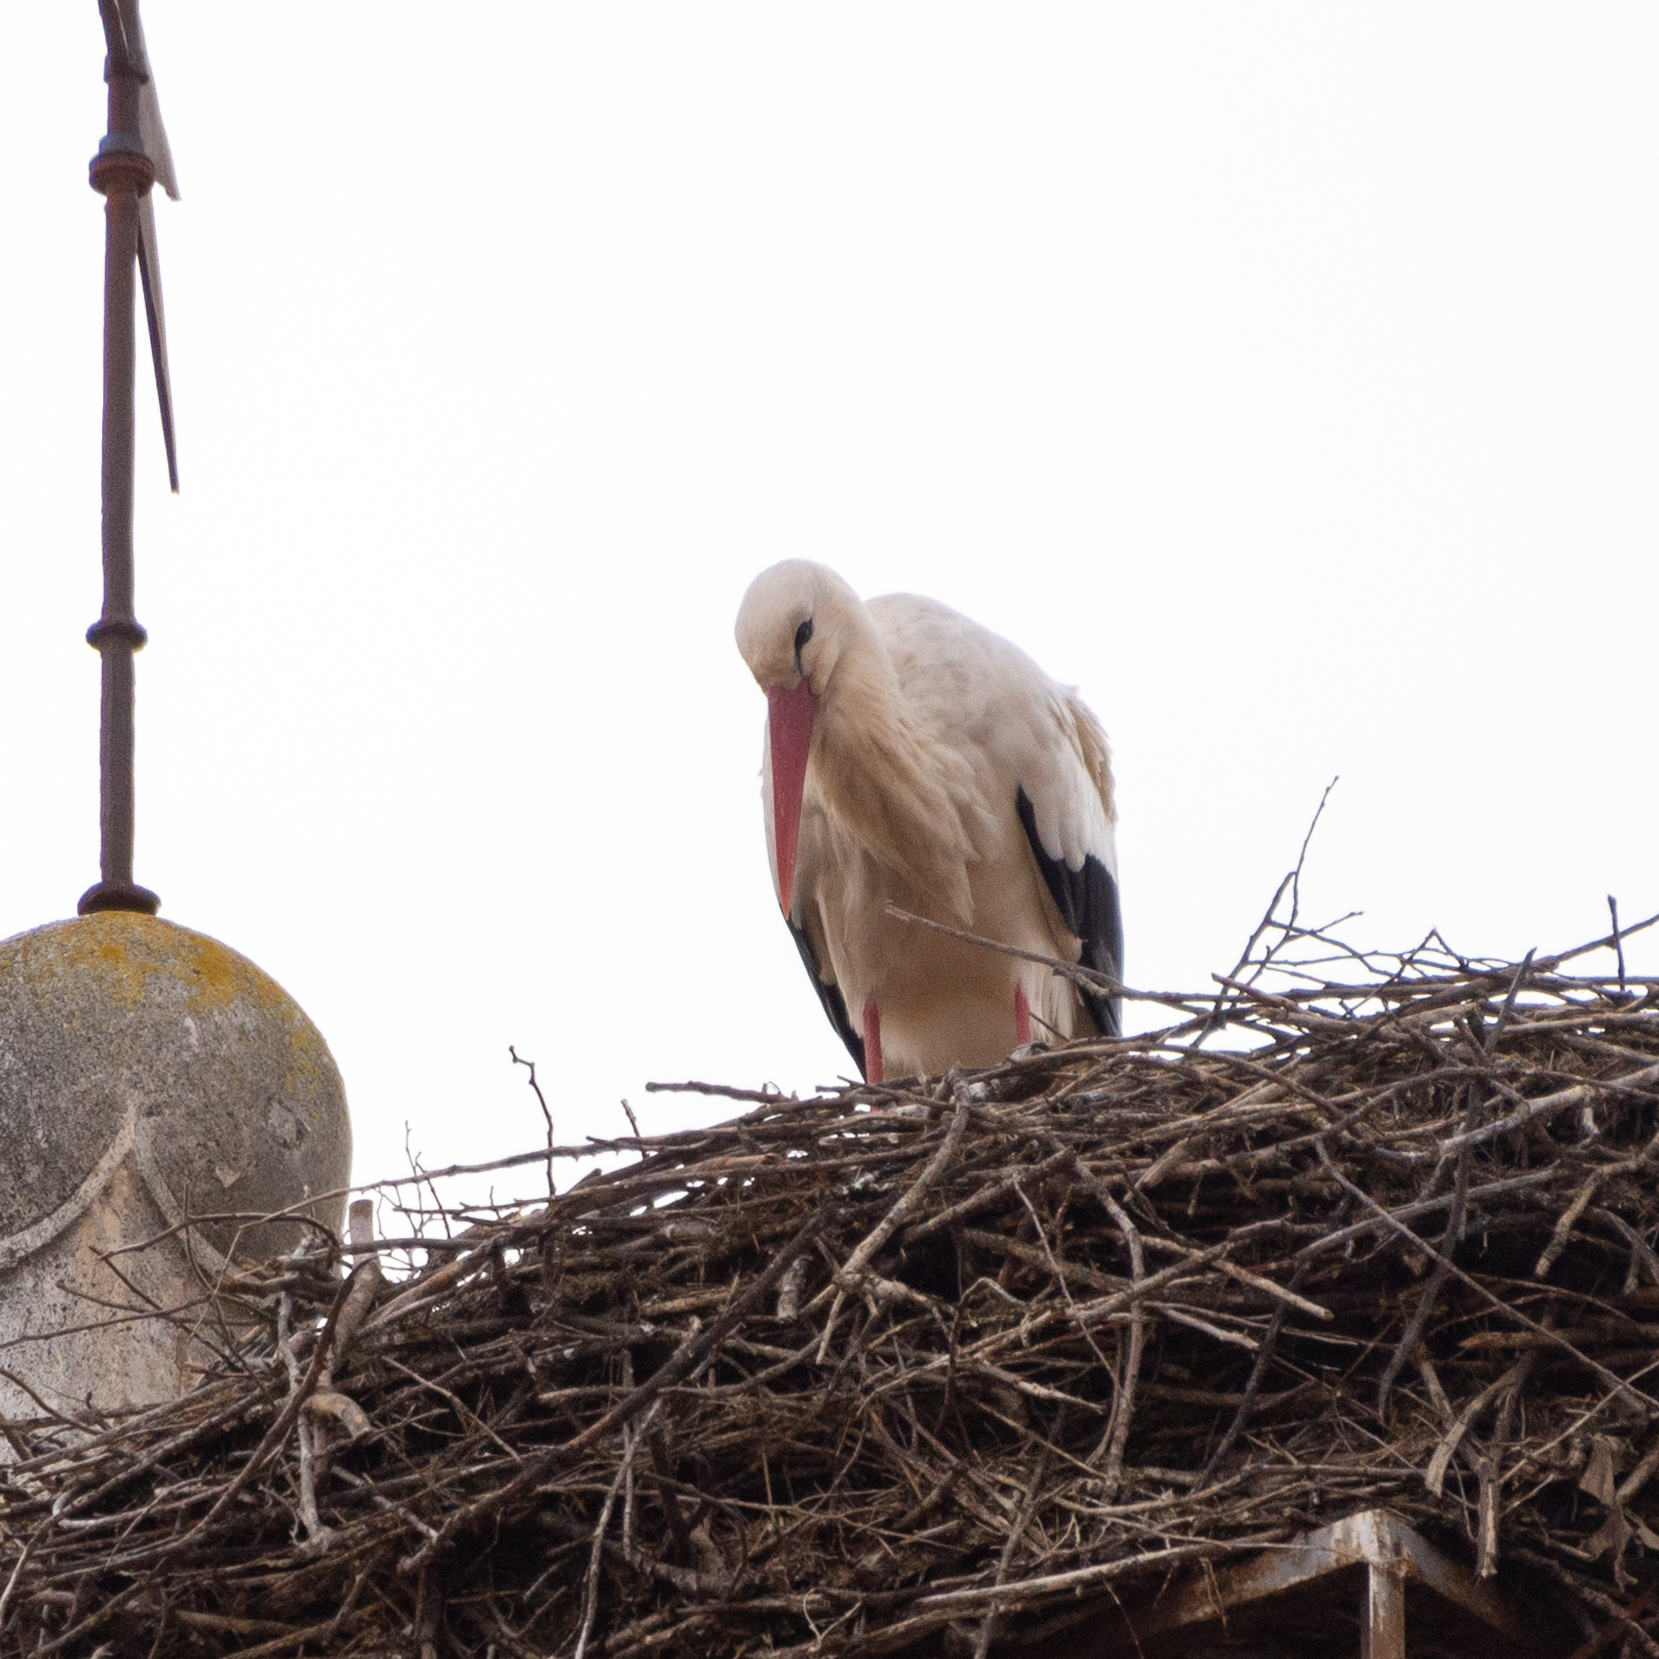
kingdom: Animalia
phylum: Chordata
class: Aves
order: Ciconiiformes
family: Ciconiidae
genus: Ciconia
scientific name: Ciconia ciconia
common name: White stork
